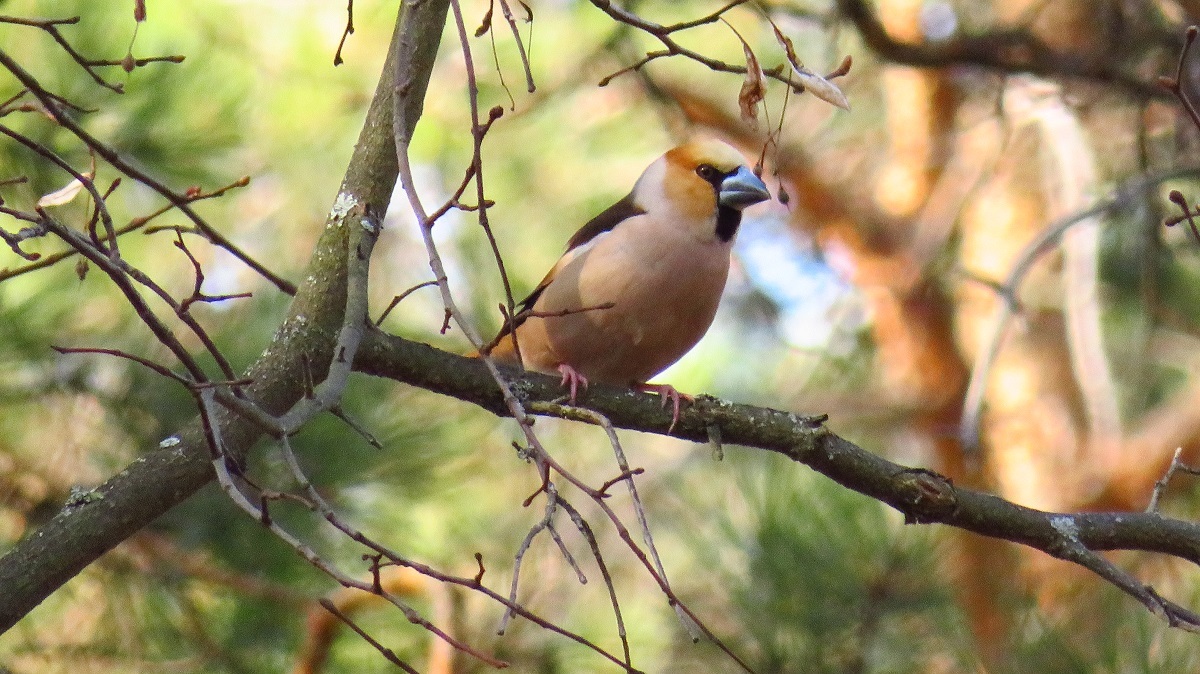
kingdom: Animalia
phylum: Chordata
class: Aves
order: Passeriformes
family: Fringillidae
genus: Coccothraustes
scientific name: Coccothraustes coccothraustes
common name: Hawfinch
